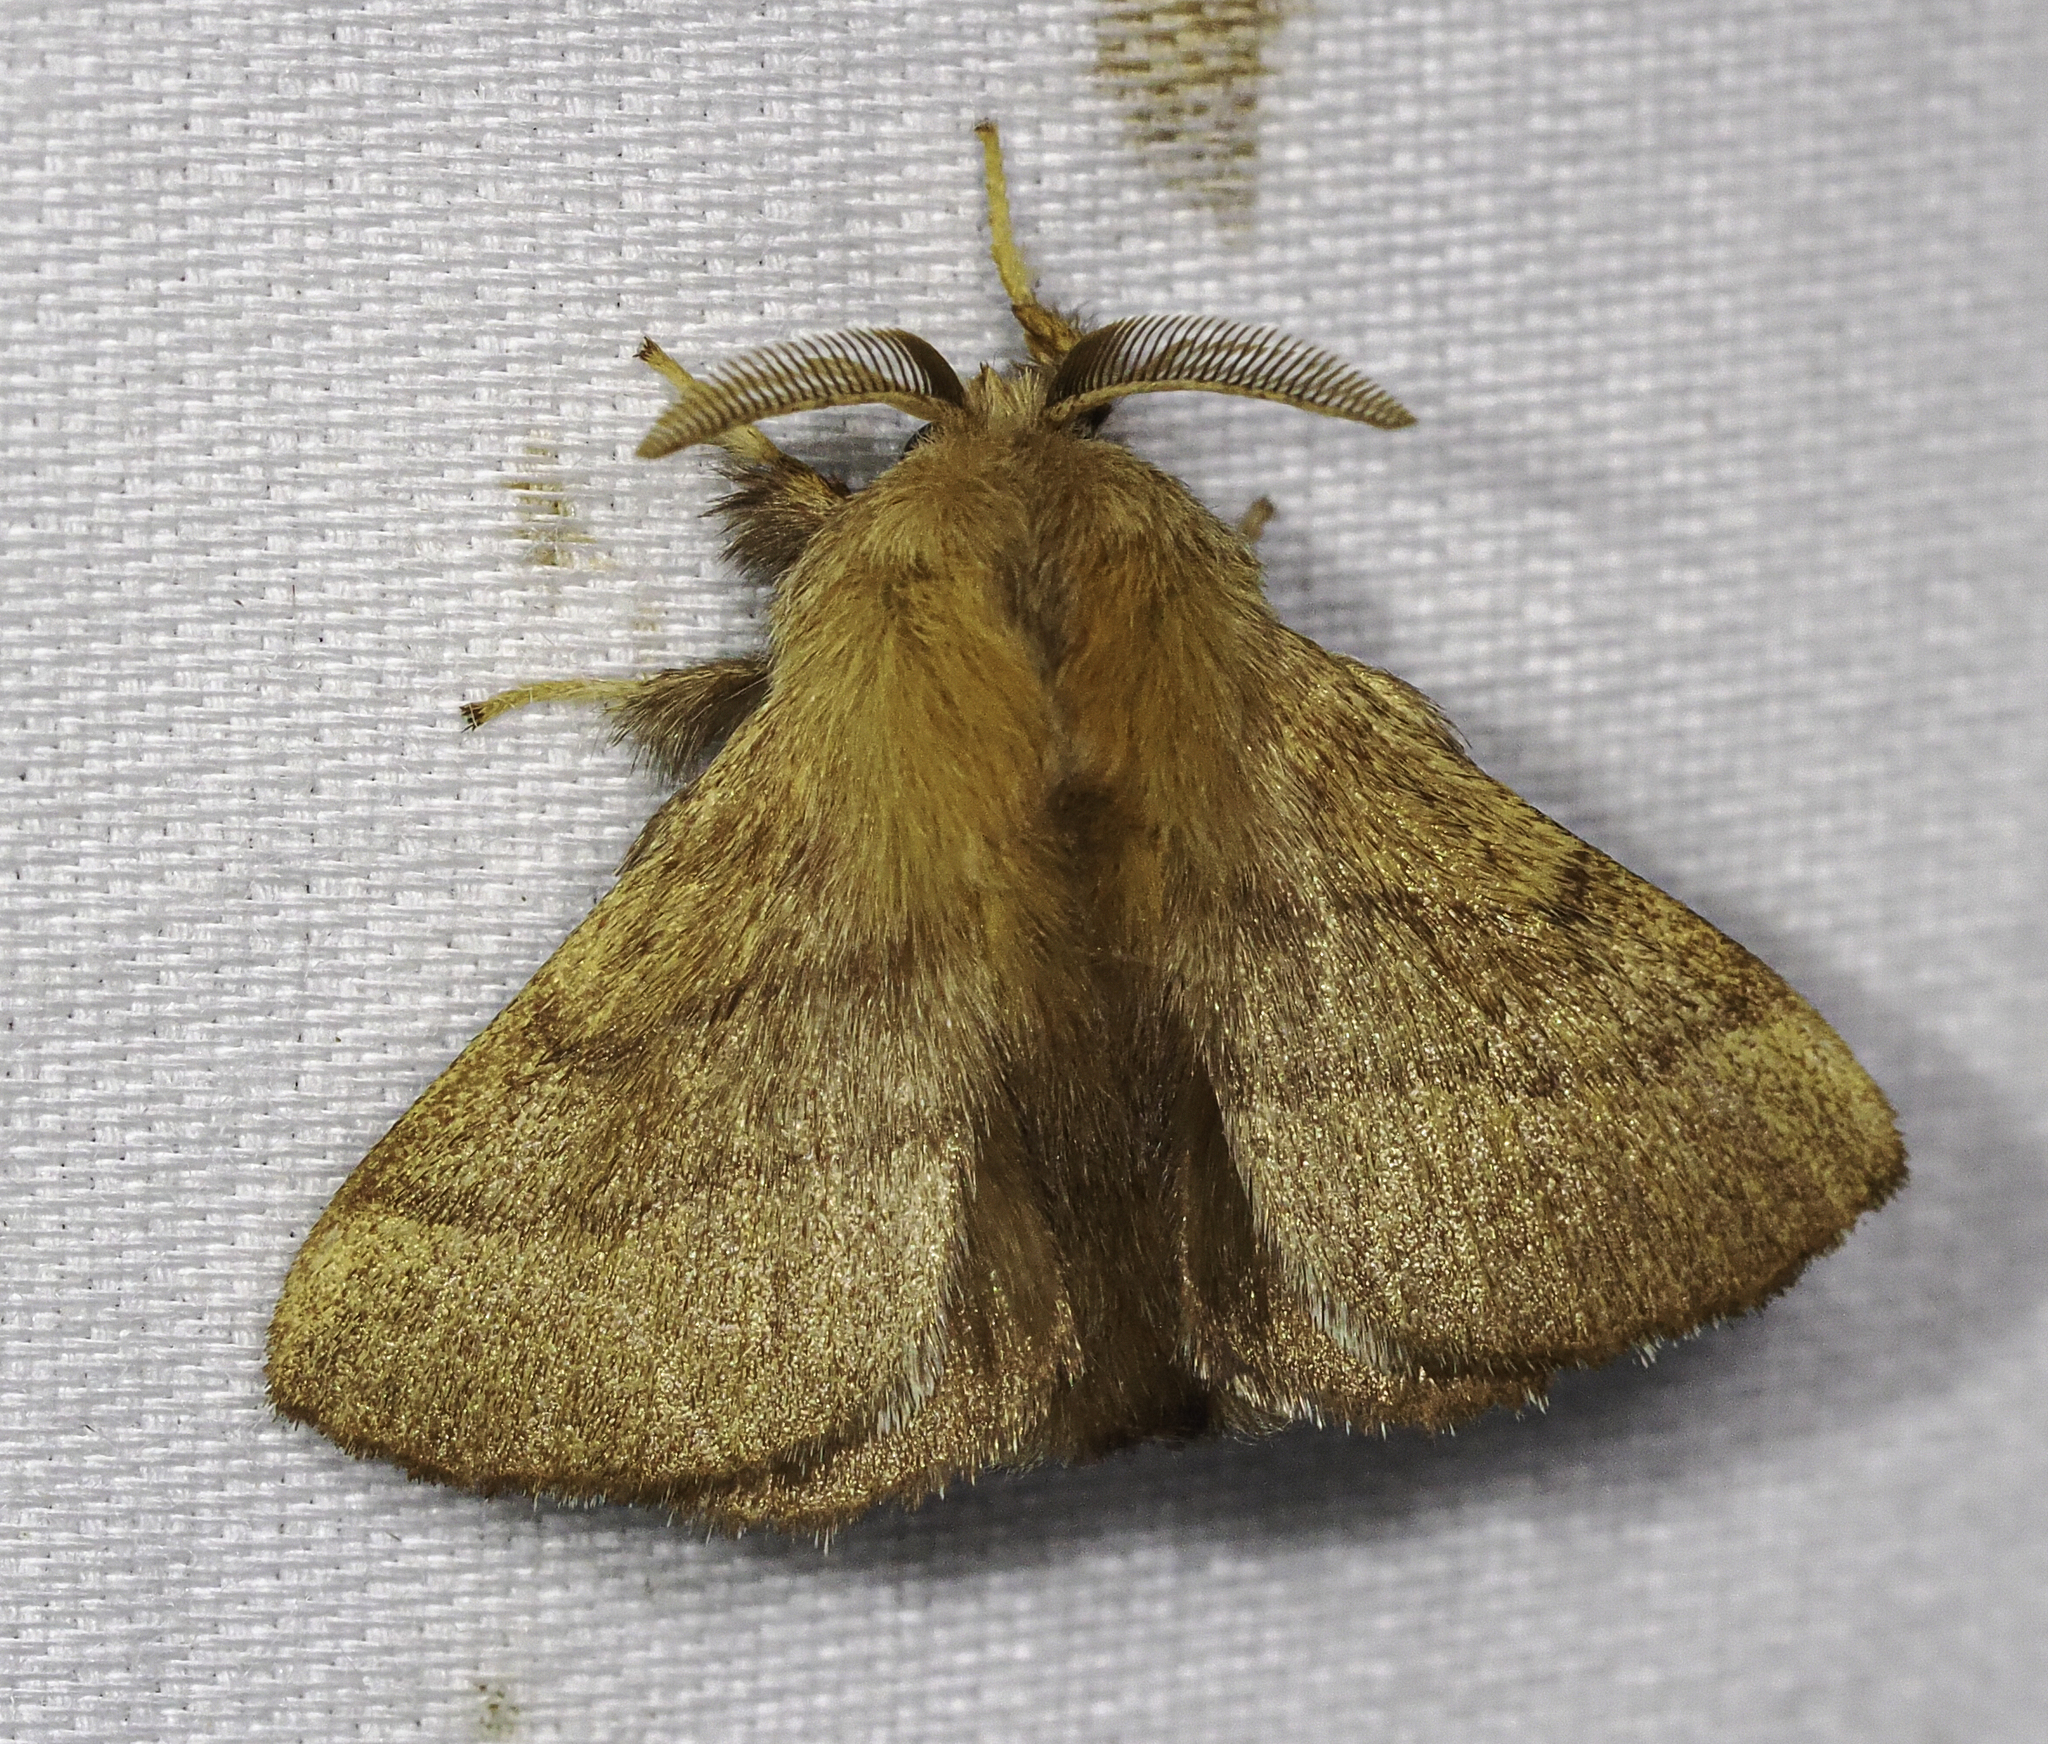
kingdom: Animalia
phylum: Arthropoda
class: Insecta
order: Lepidoptera
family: Lasiocampidae
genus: Malacosoma
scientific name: Malacosoma disstria
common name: Forest tent caterpillar
